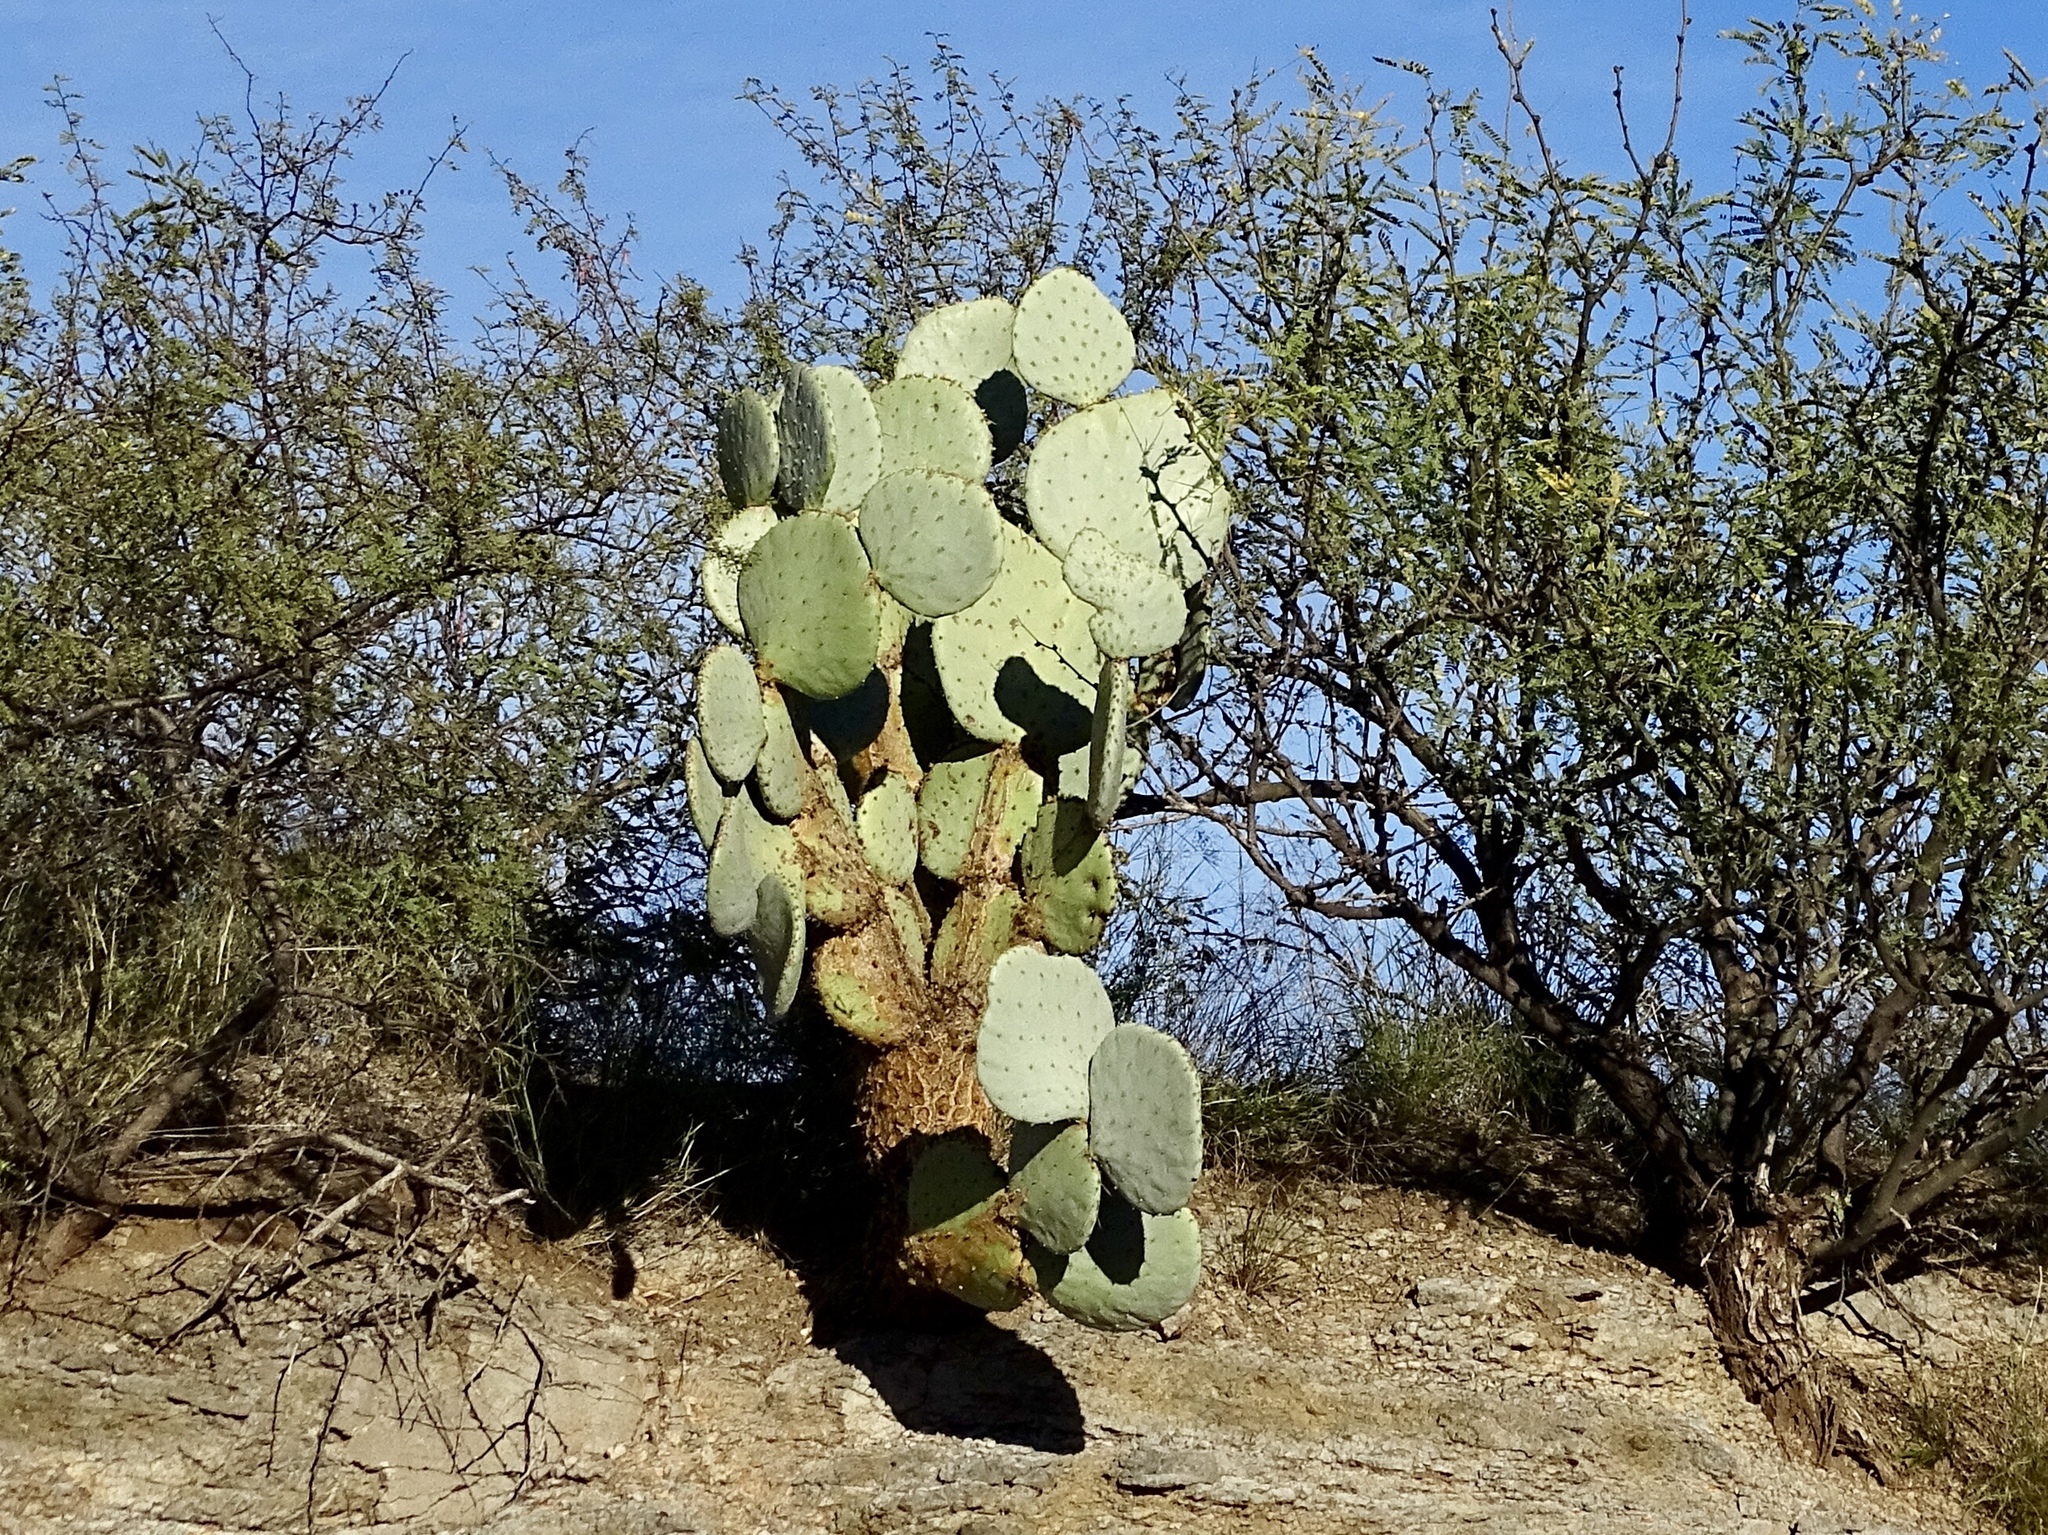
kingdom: Plantae
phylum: Tracheophyta
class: Magnoliopsida
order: Caryophyllales
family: Cactaceae
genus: Opuntia
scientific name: Opuntia chlorotica
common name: Dollar-joint prickly-pear
